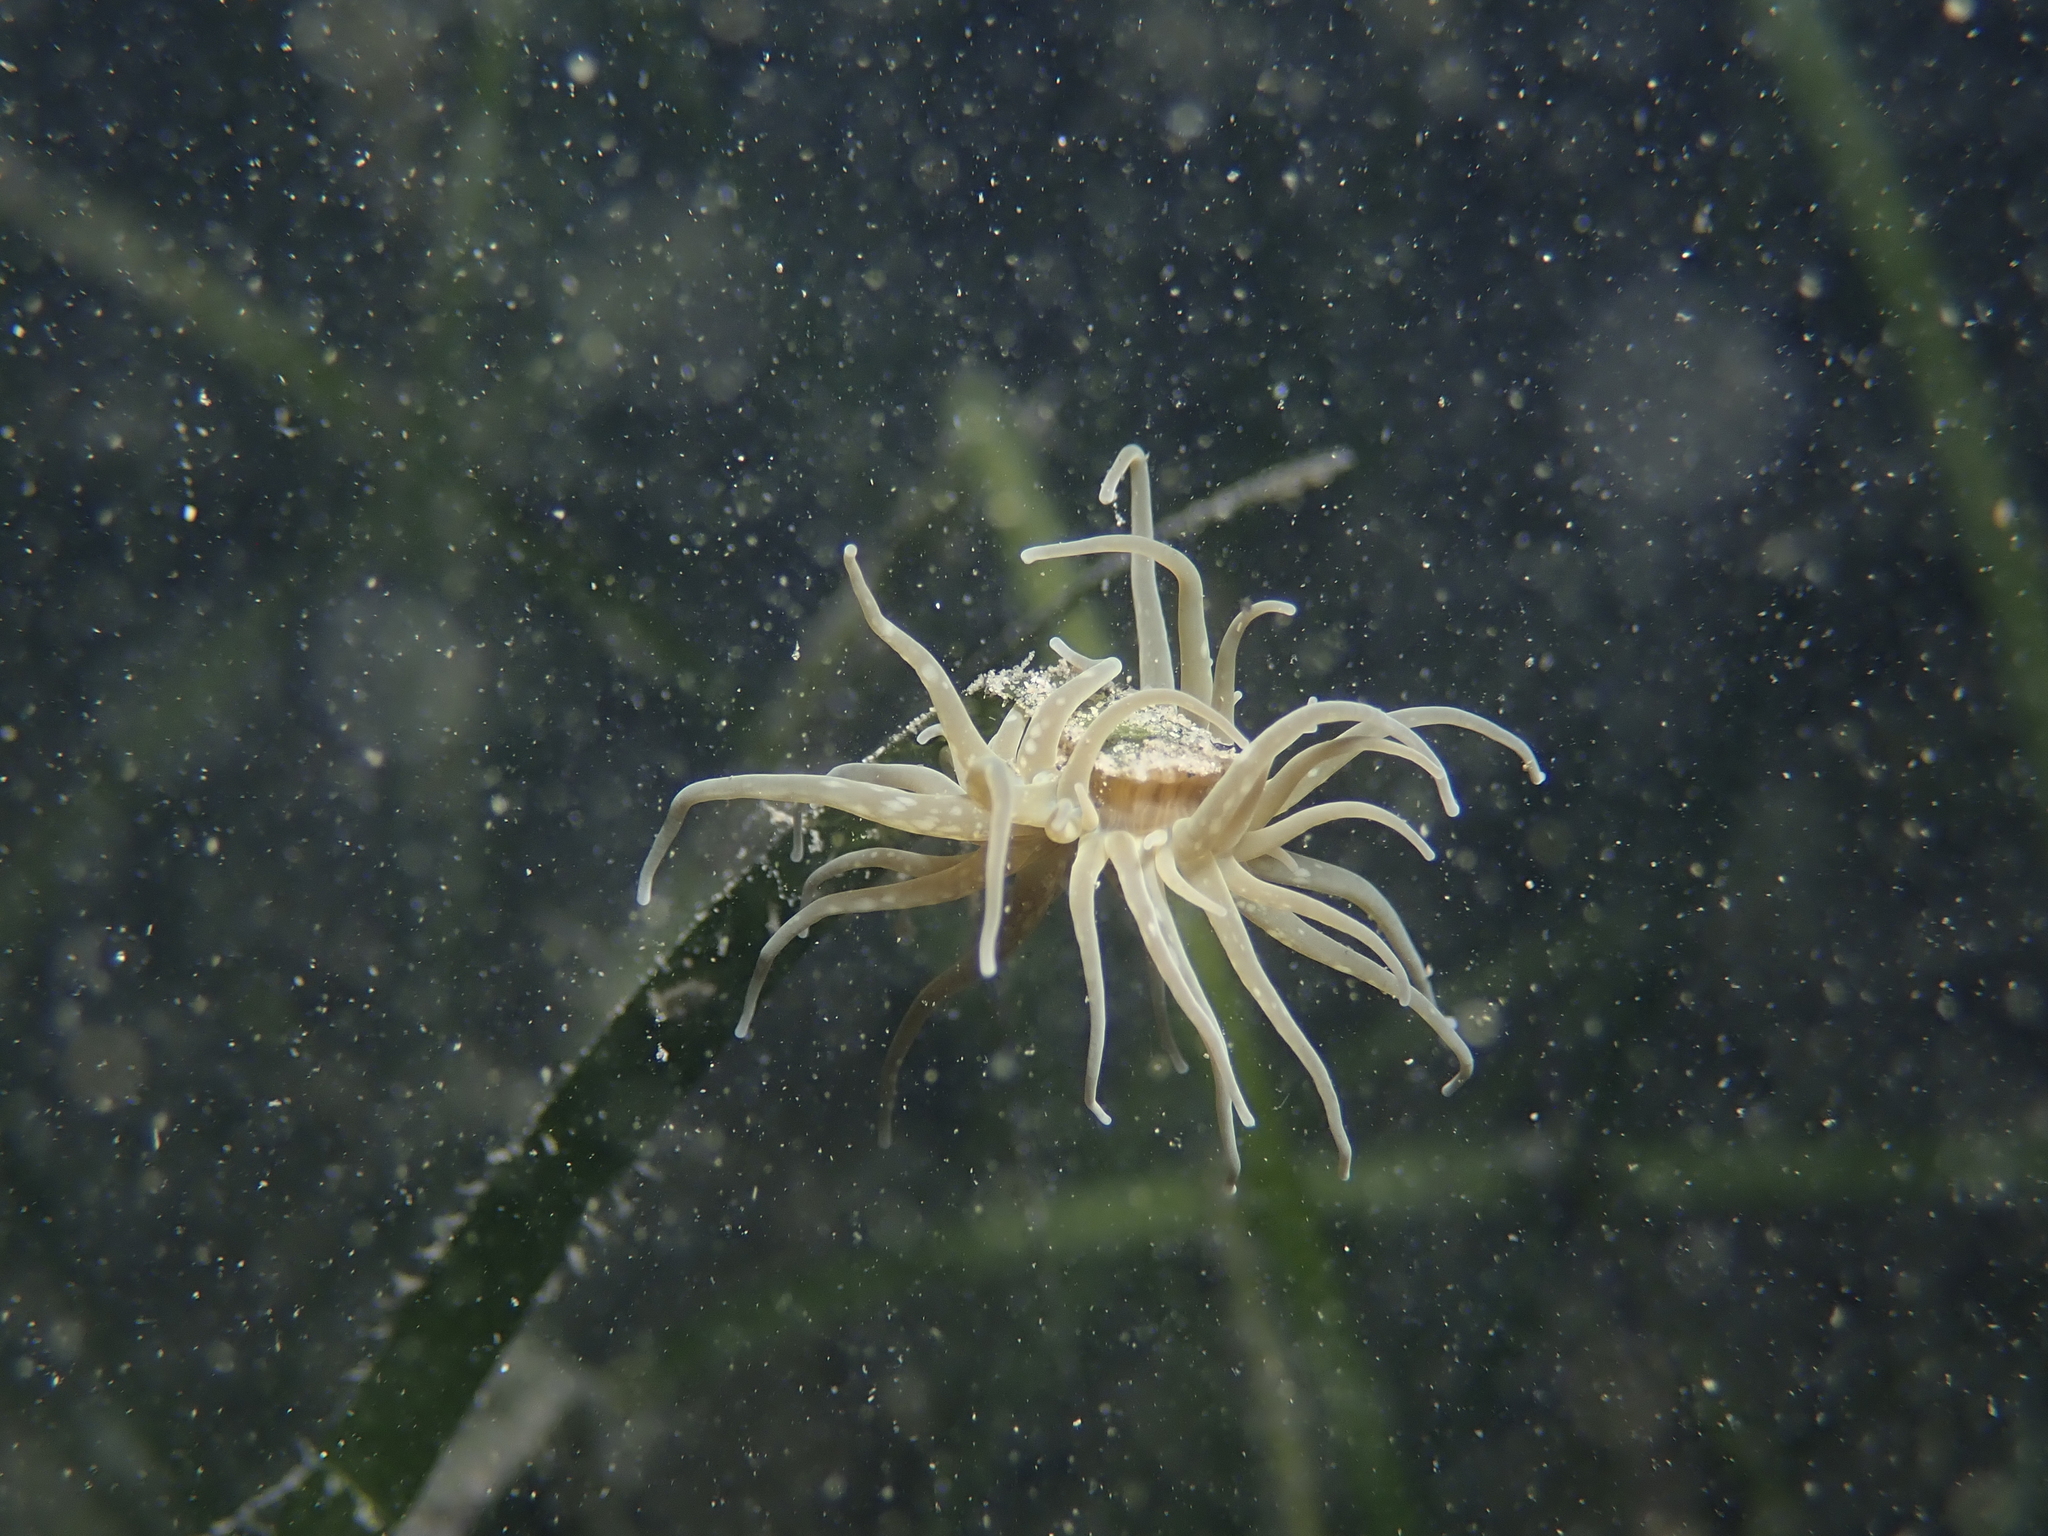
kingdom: Animalia
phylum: Cnidaria
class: Anthozoa
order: Actiniaria
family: Actiniidae
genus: Paranemonia
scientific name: Paranemonia cinerea
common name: Grass crack anemone
